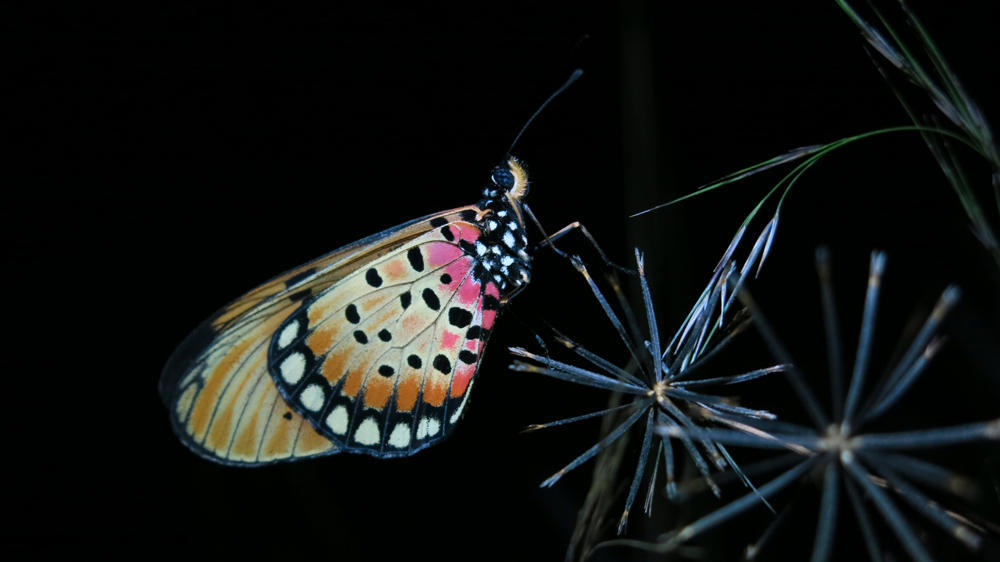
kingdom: Animalia
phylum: Arthropoda
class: Insecta
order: Lepidoptera
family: Nymphalidae
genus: Stephenia
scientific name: Stephenia
